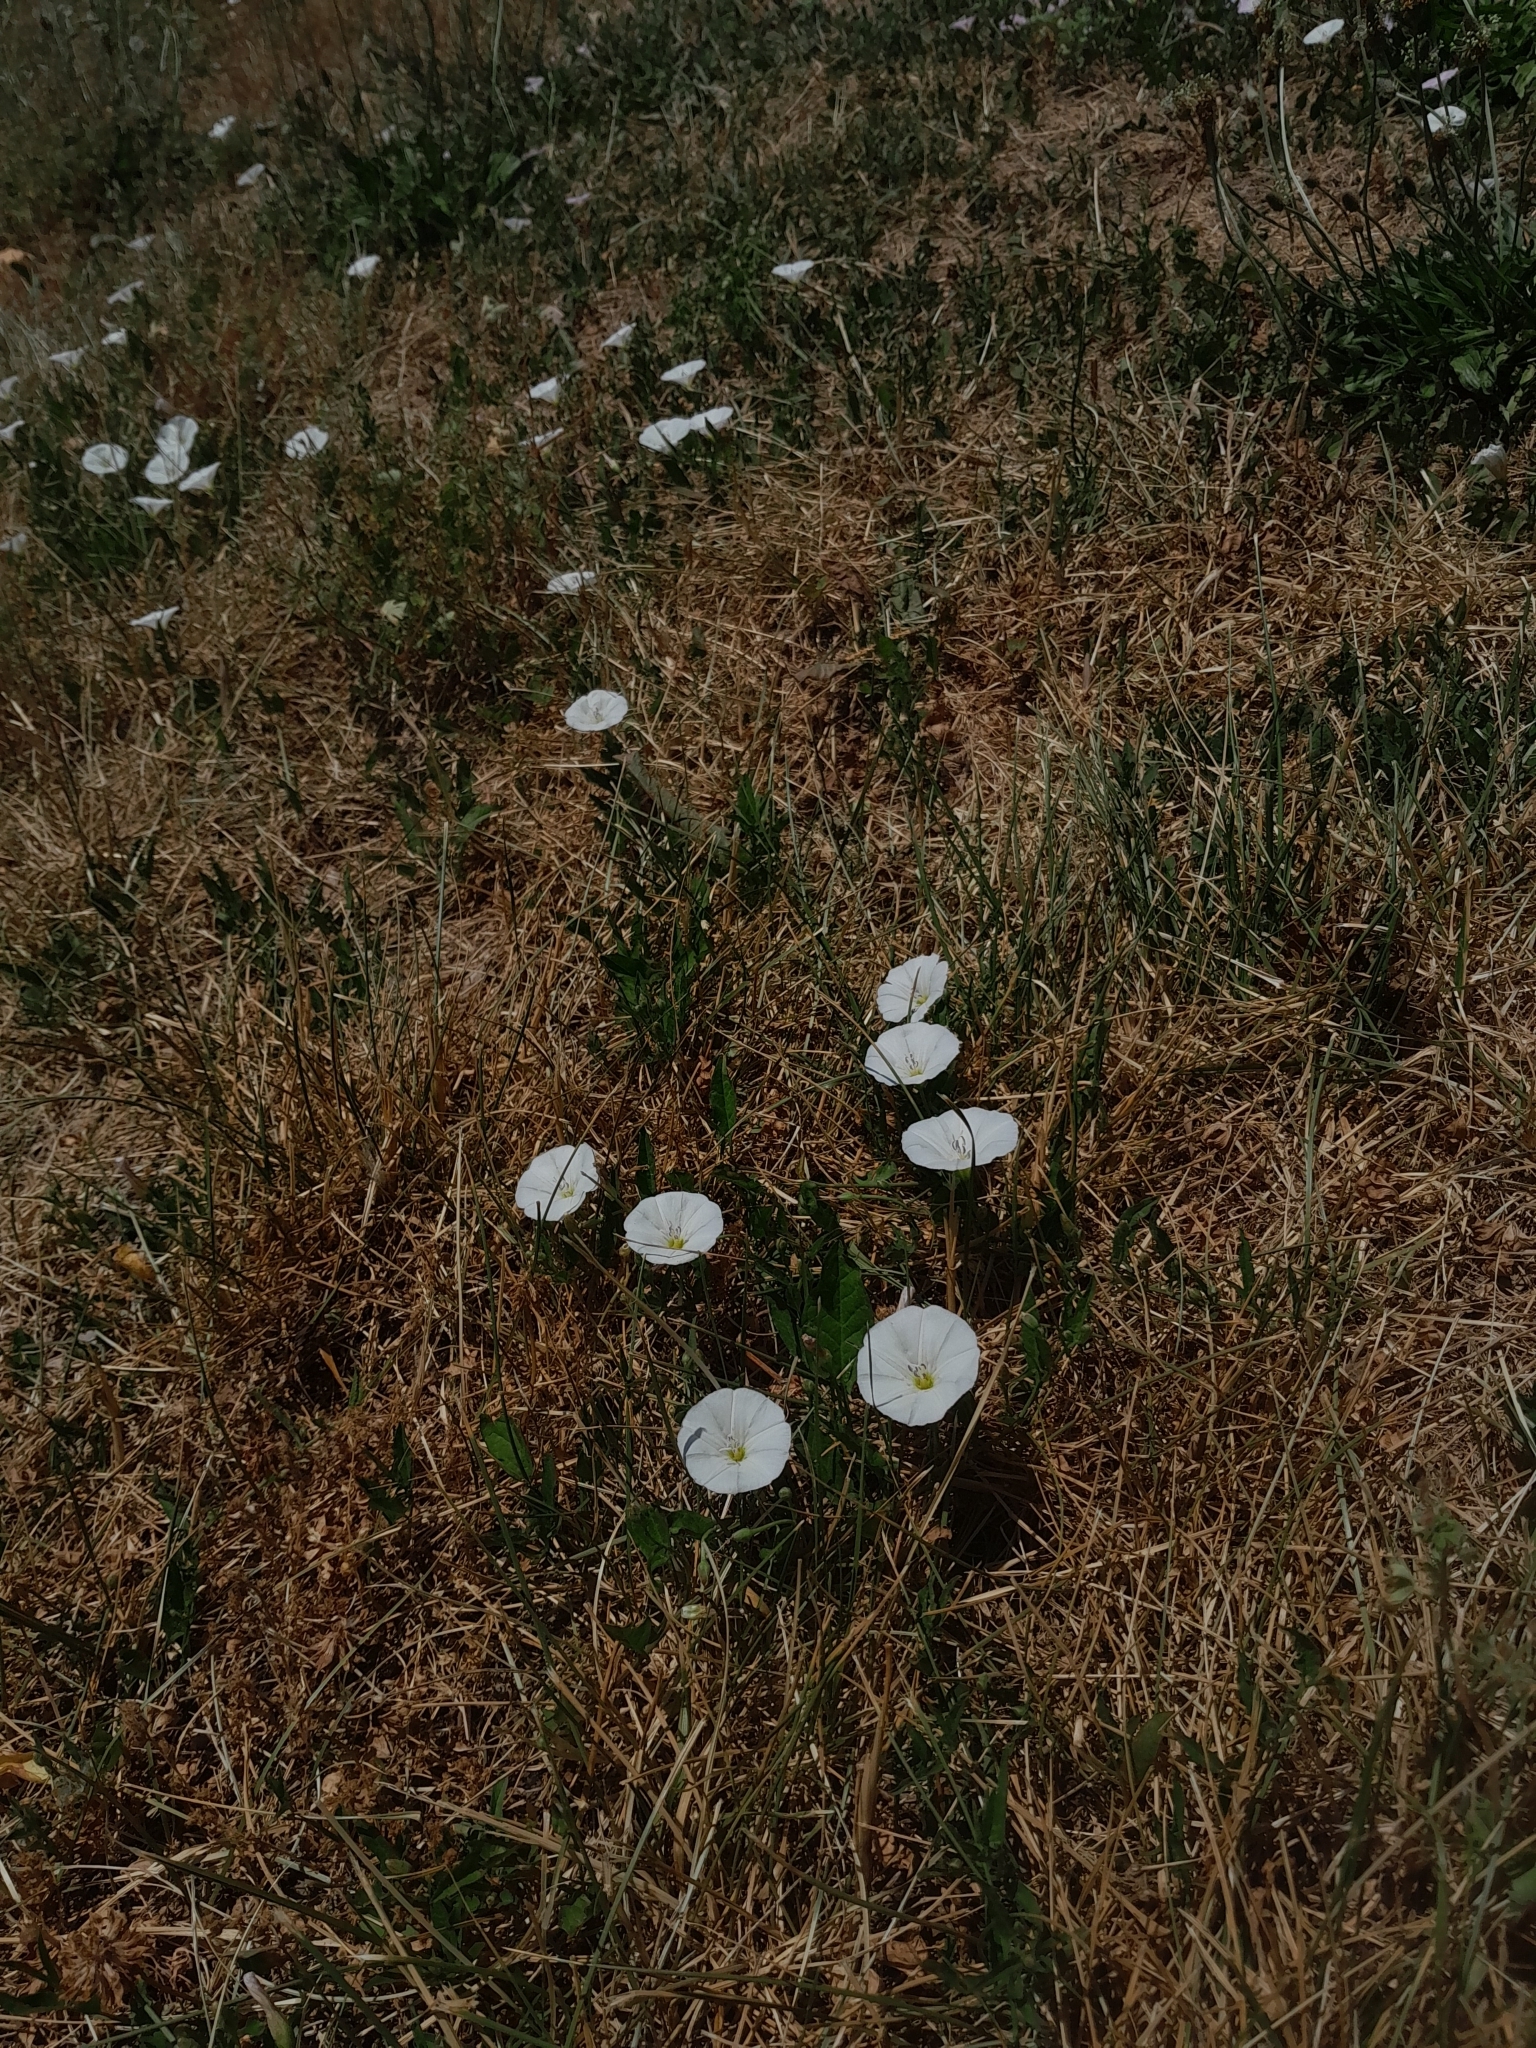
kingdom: Plantae
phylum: Tracheophyta
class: Magnoliopsida
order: Solanales
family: Convolvulaceae
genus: Convolvulus
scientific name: Convolvulus arvensis
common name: Field bindweed
